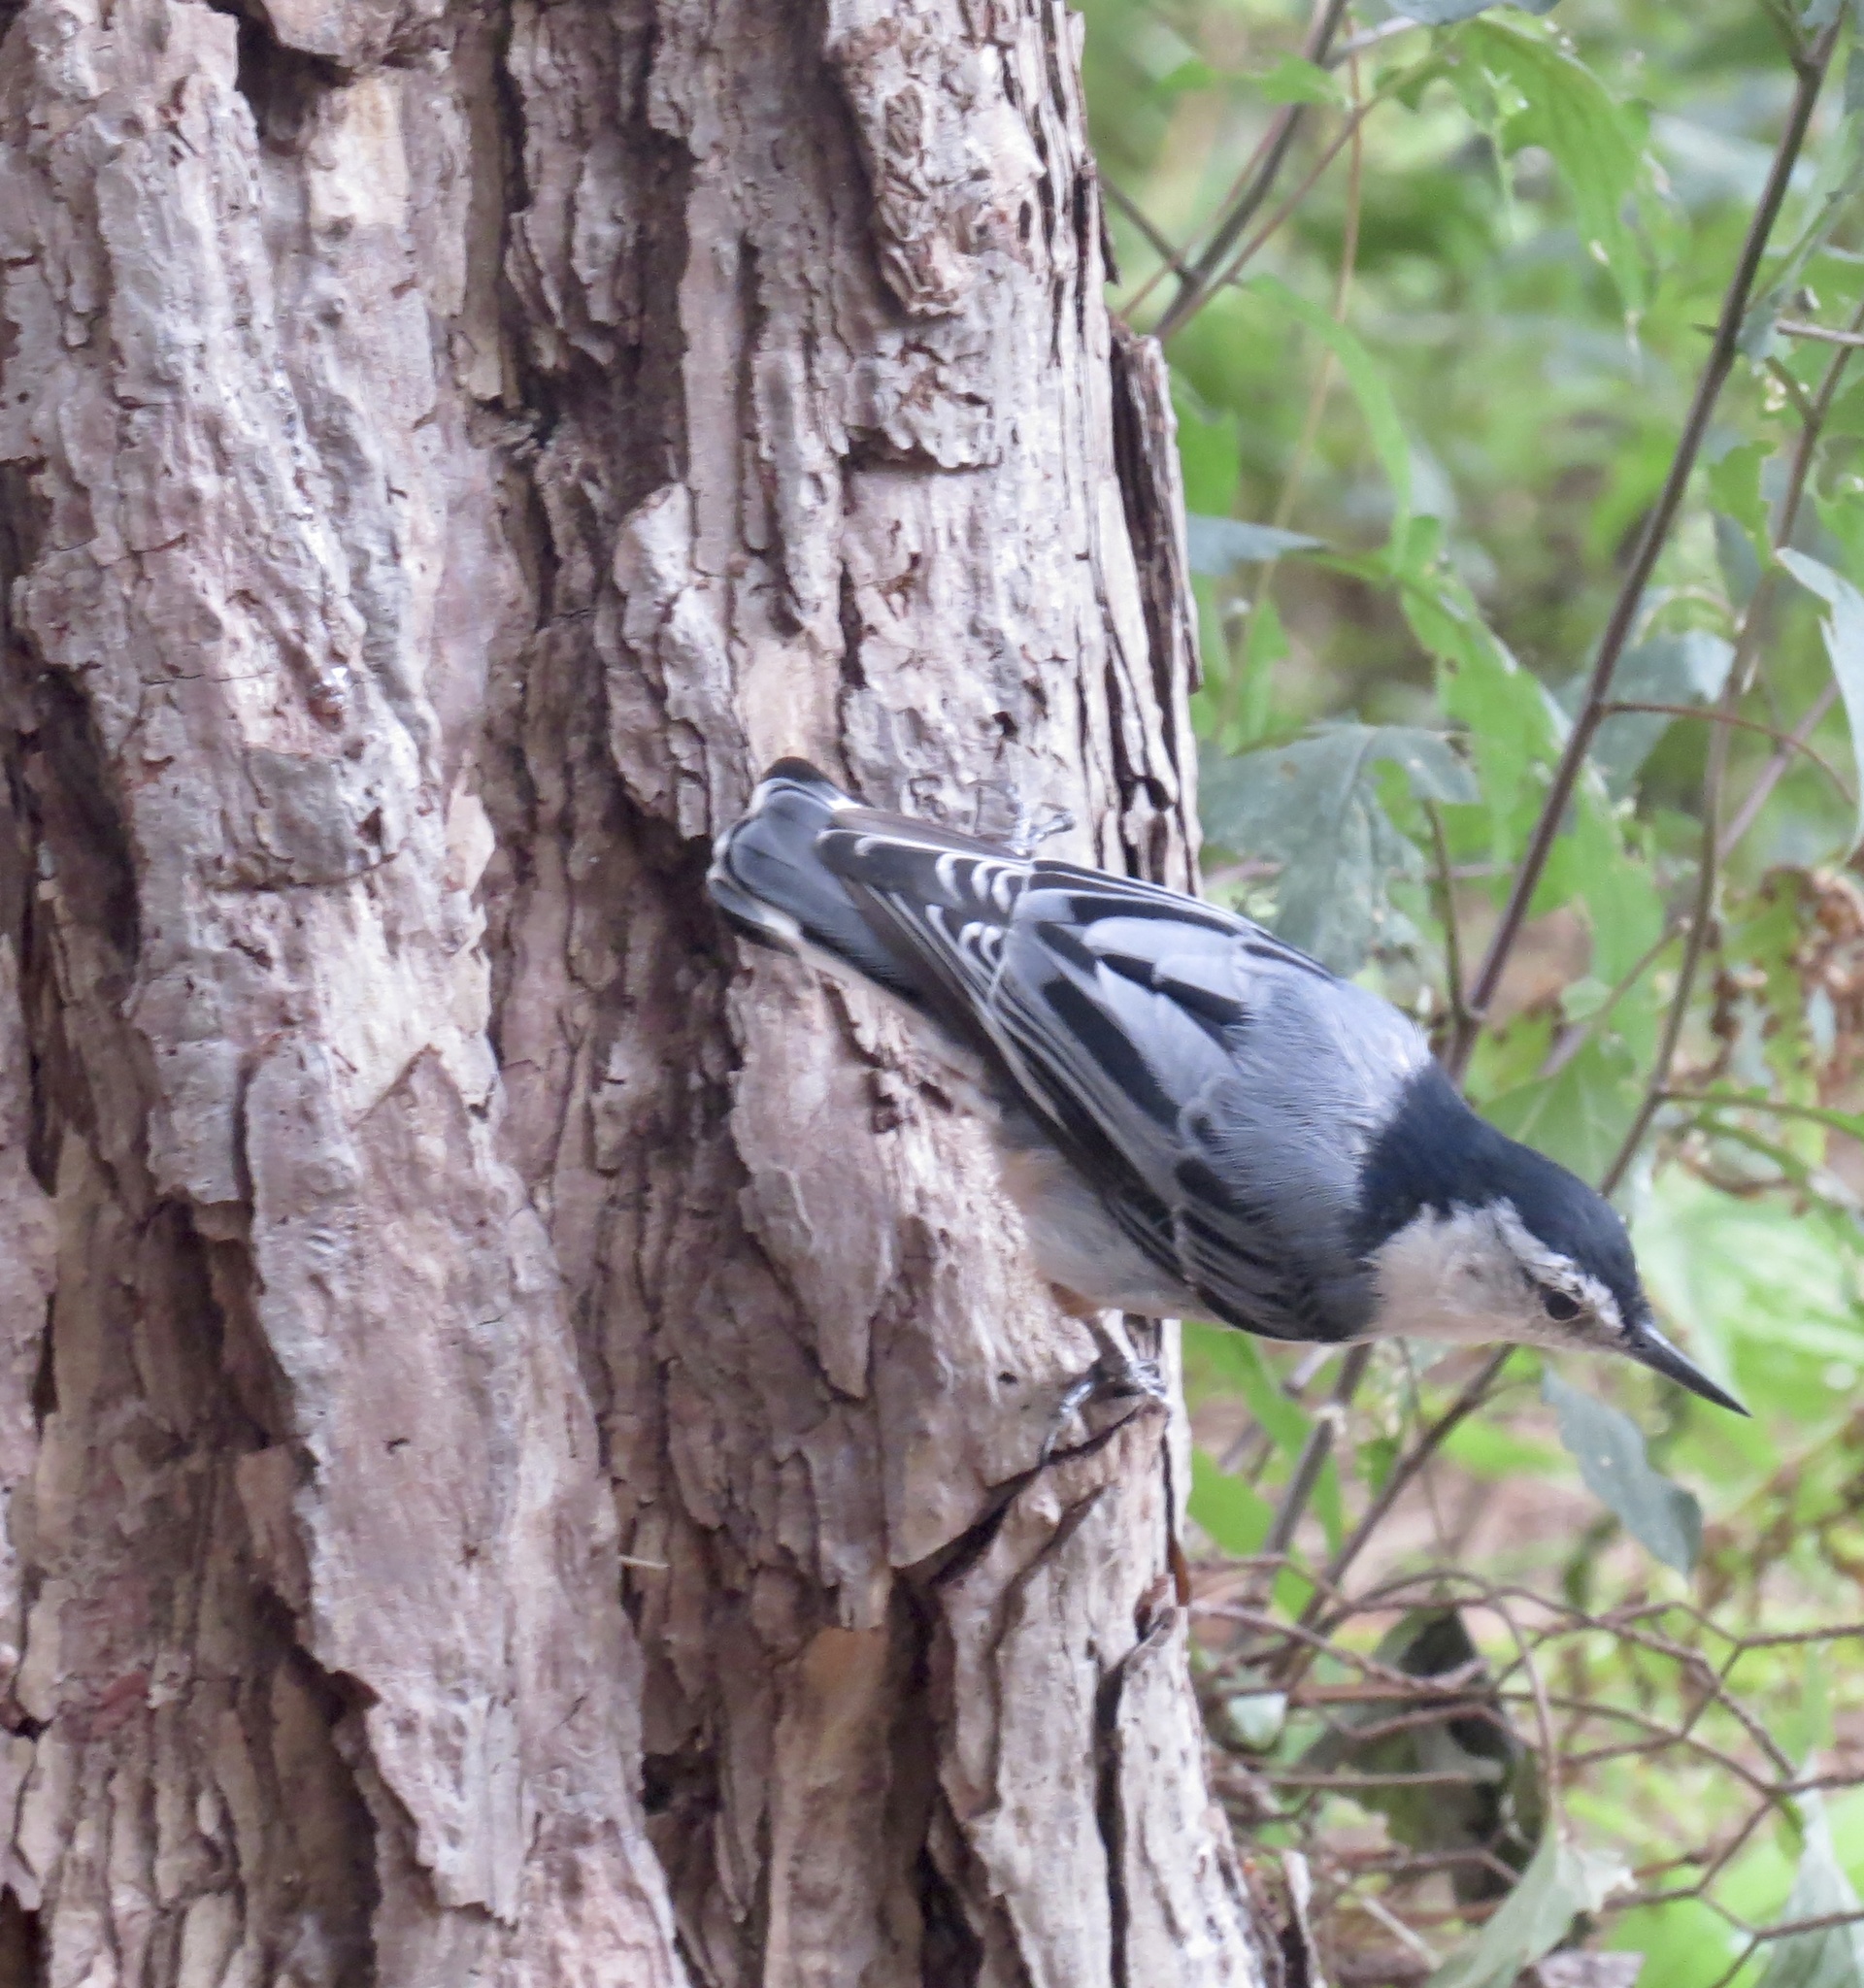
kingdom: Animalia
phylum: Chordata
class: Aves
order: Passeriformes
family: Sittidae
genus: Sitta
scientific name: Sitta carolinensis
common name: White-breasted nuthatch
